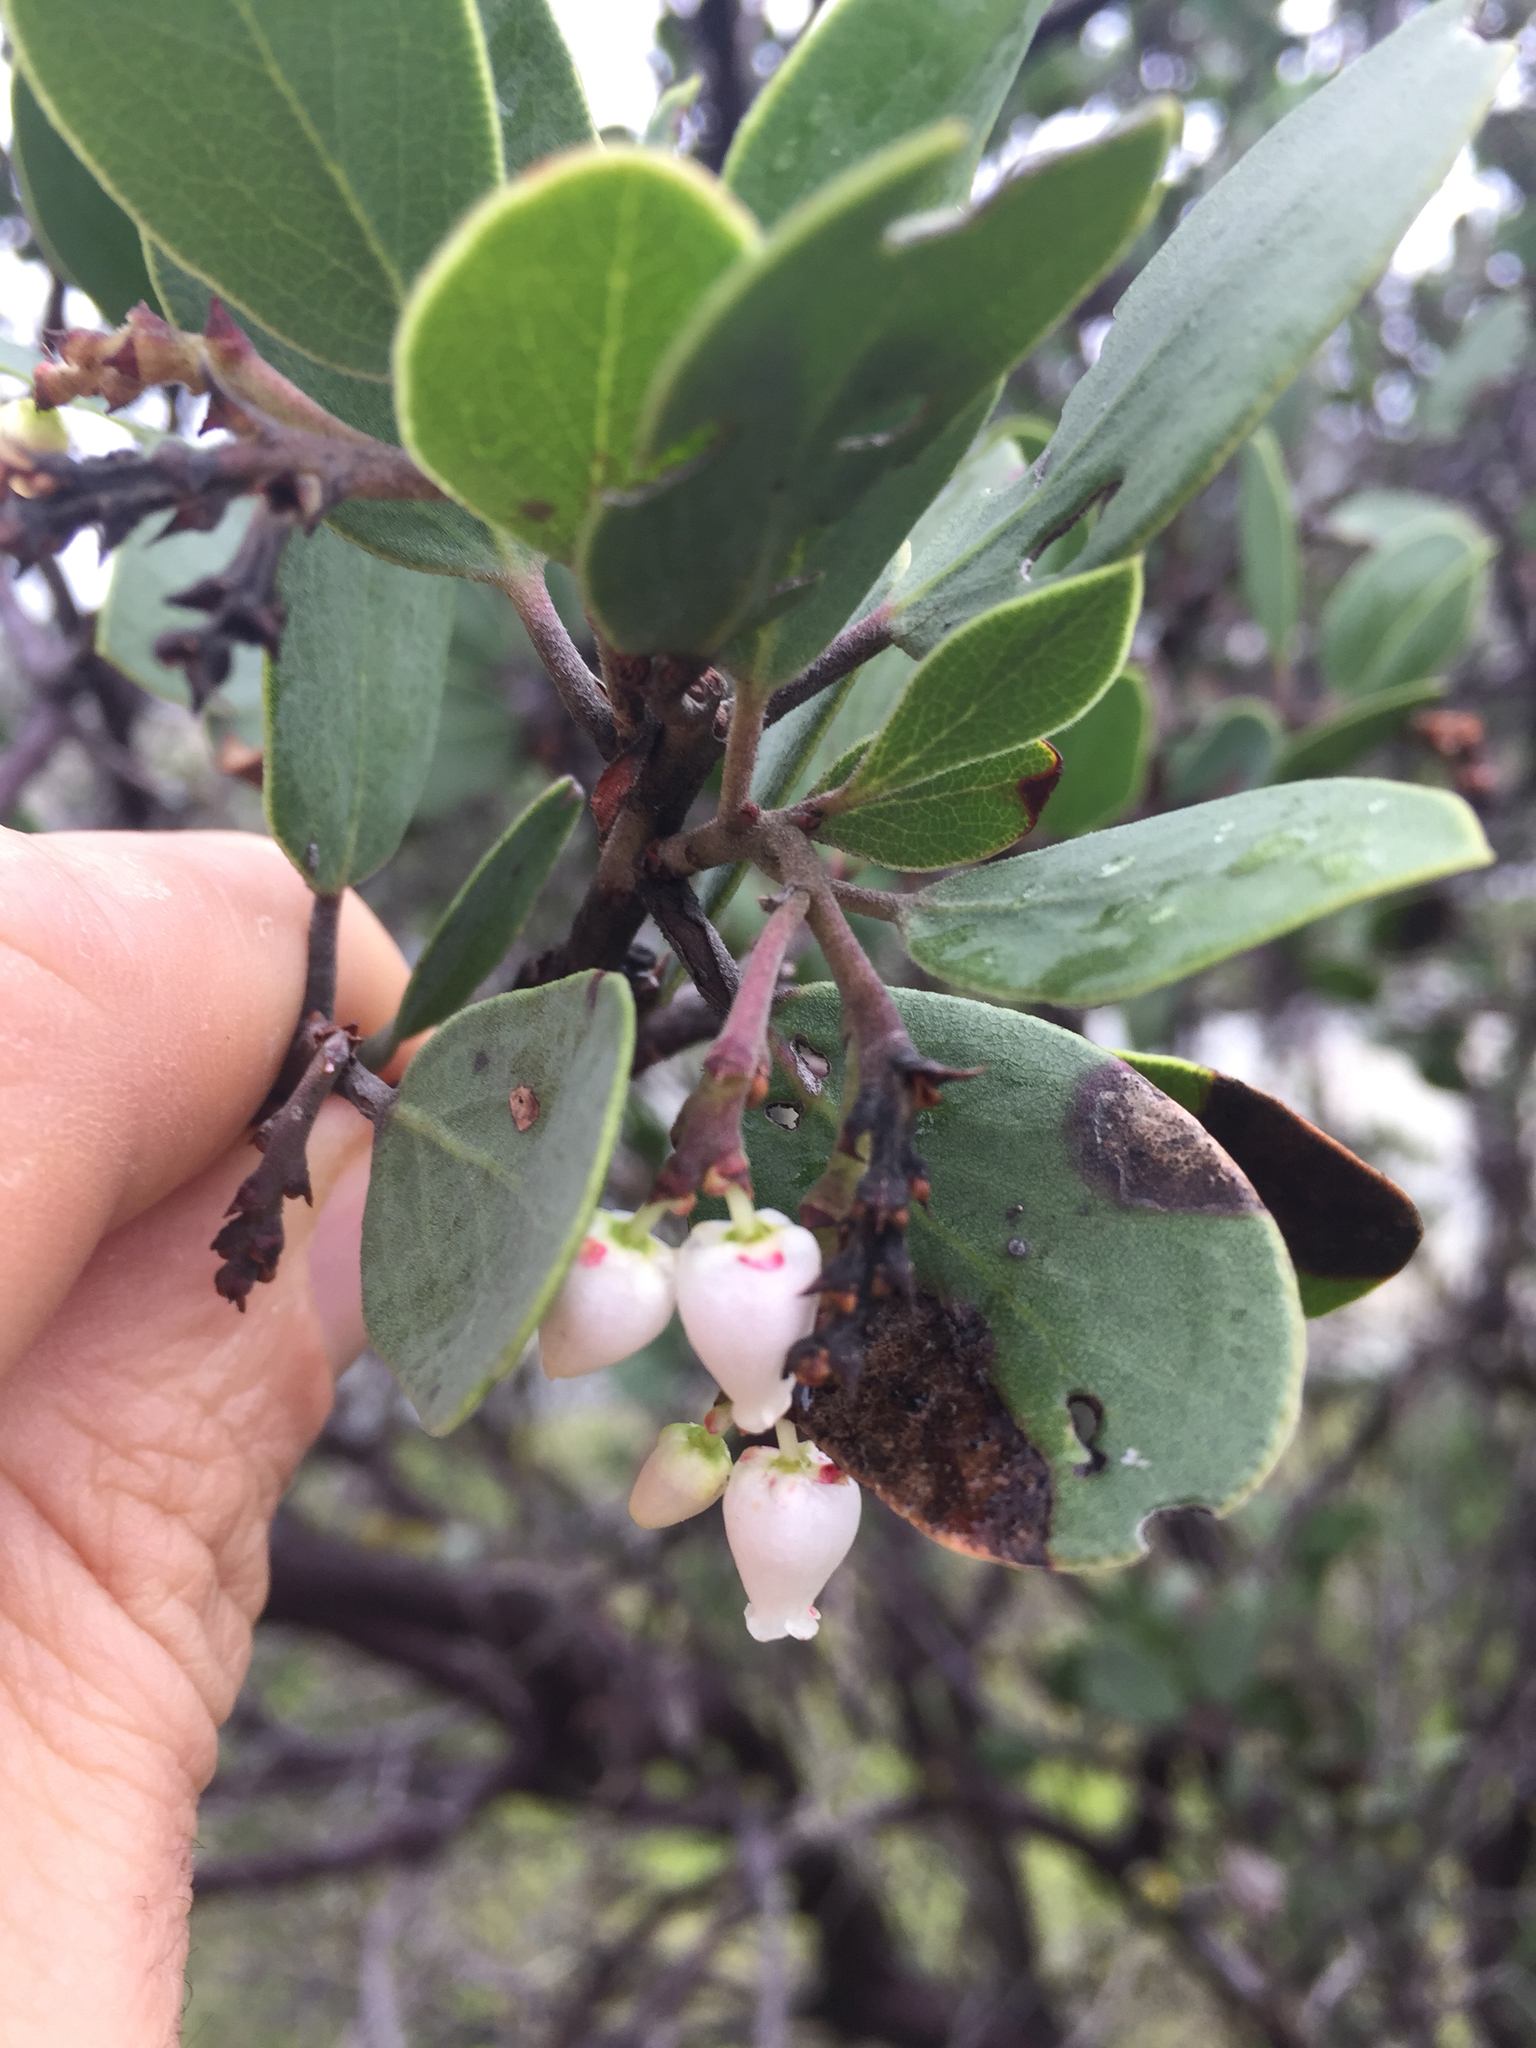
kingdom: Plantae
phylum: Tracheophyta
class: Magnoliopsida
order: Ericales
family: Ericaceae
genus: Arctostaphylos
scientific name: Arctostaphylos manzanita
